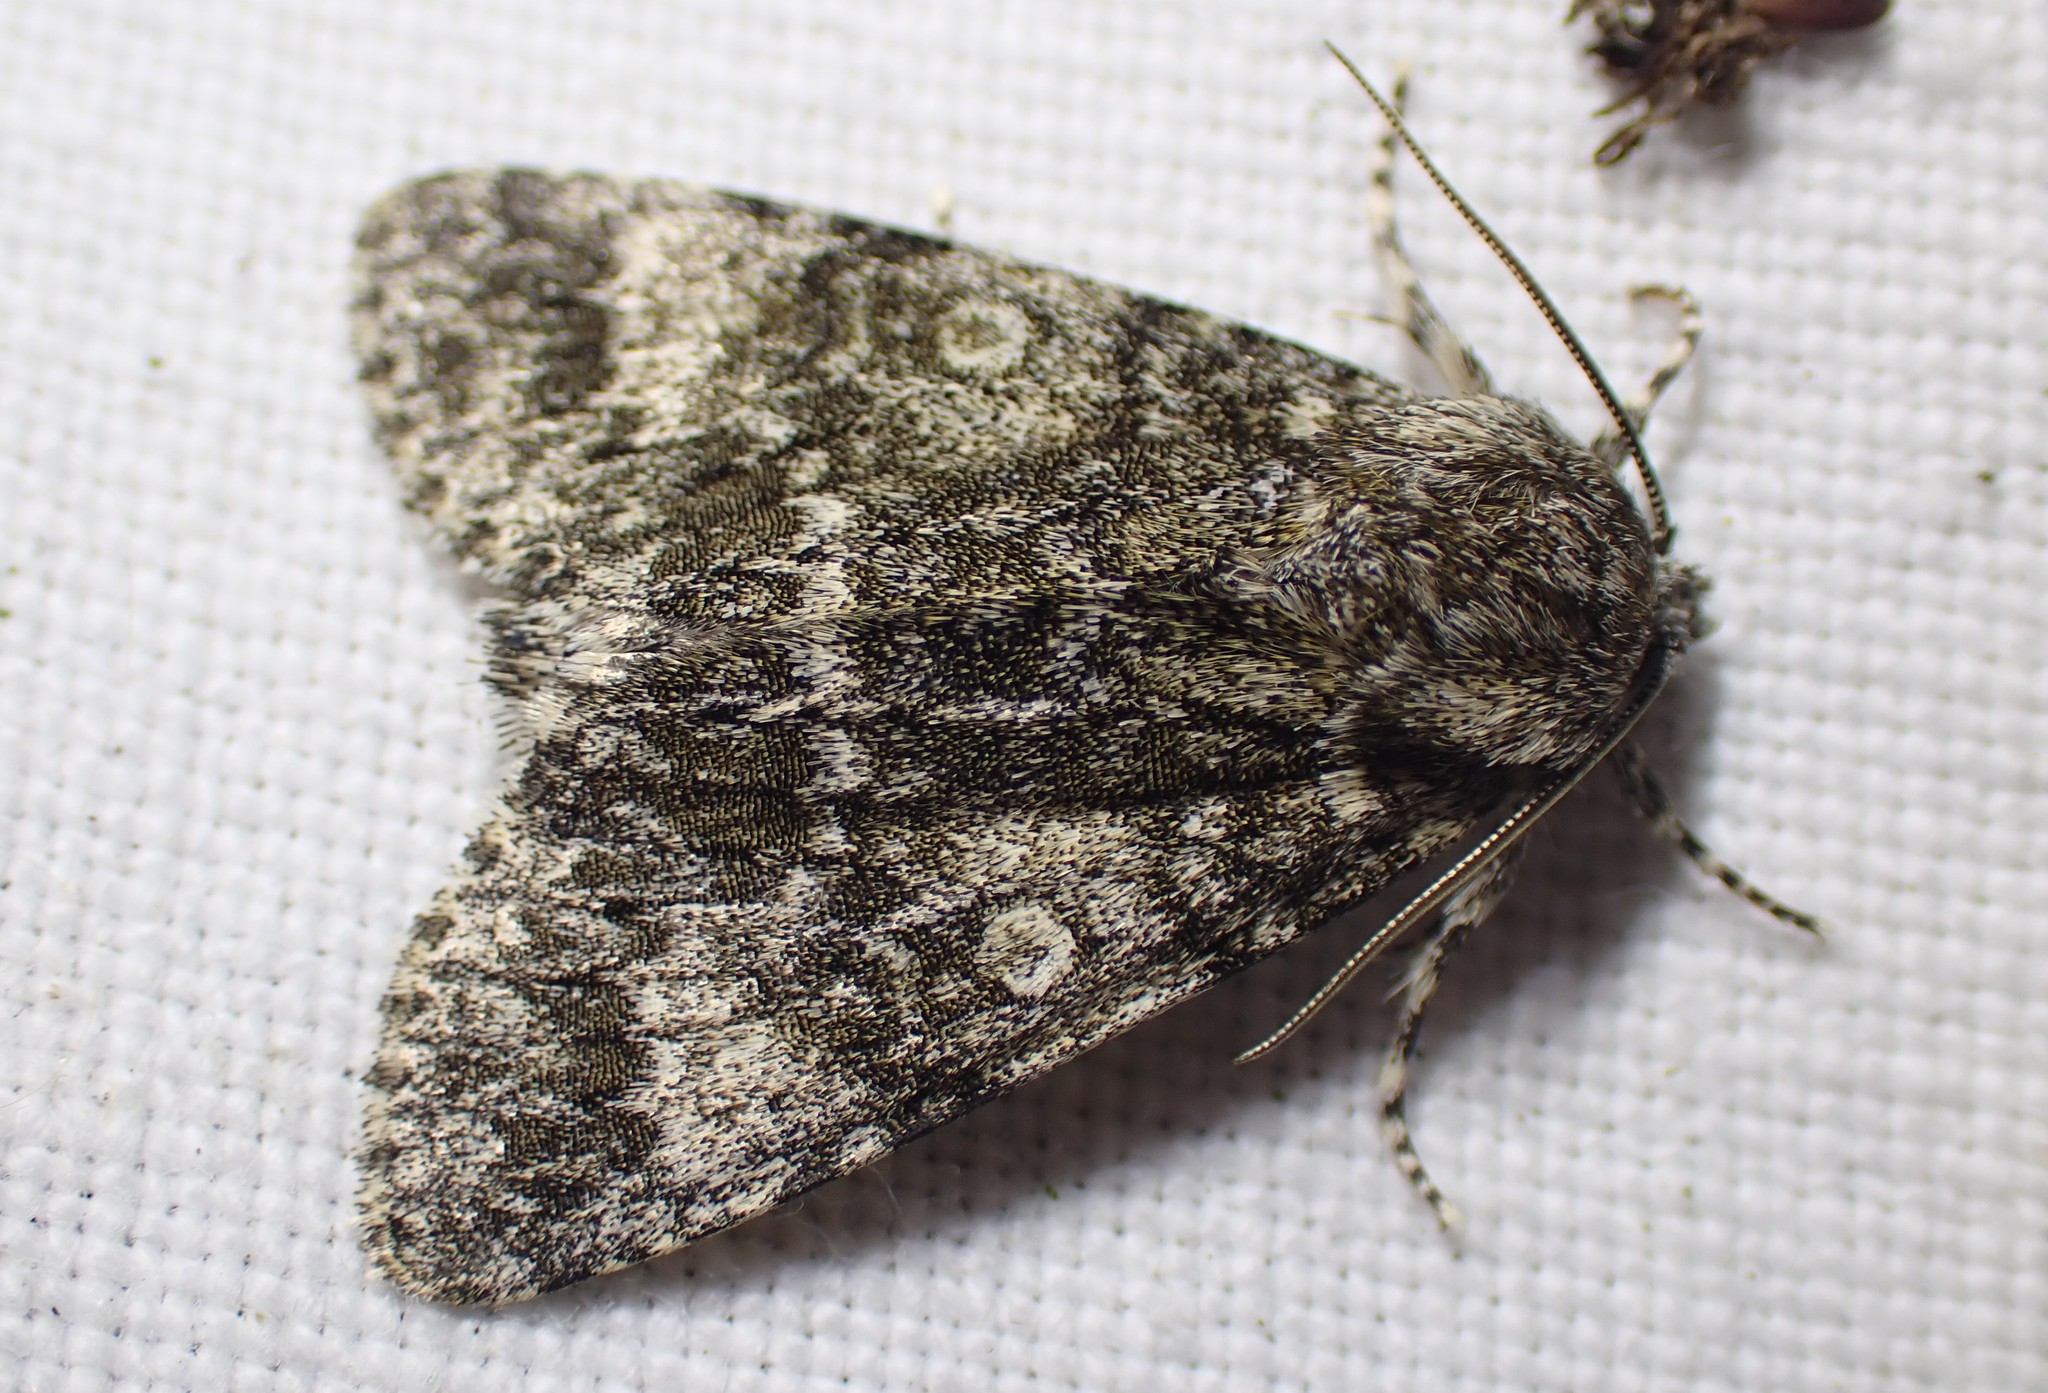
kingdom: Animalia
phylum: Arthropoda
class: Insecta
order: Lepidoptera
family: Noctuidae
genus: Acronicta
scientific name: Acronicta megacephala
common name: Poplar grey
